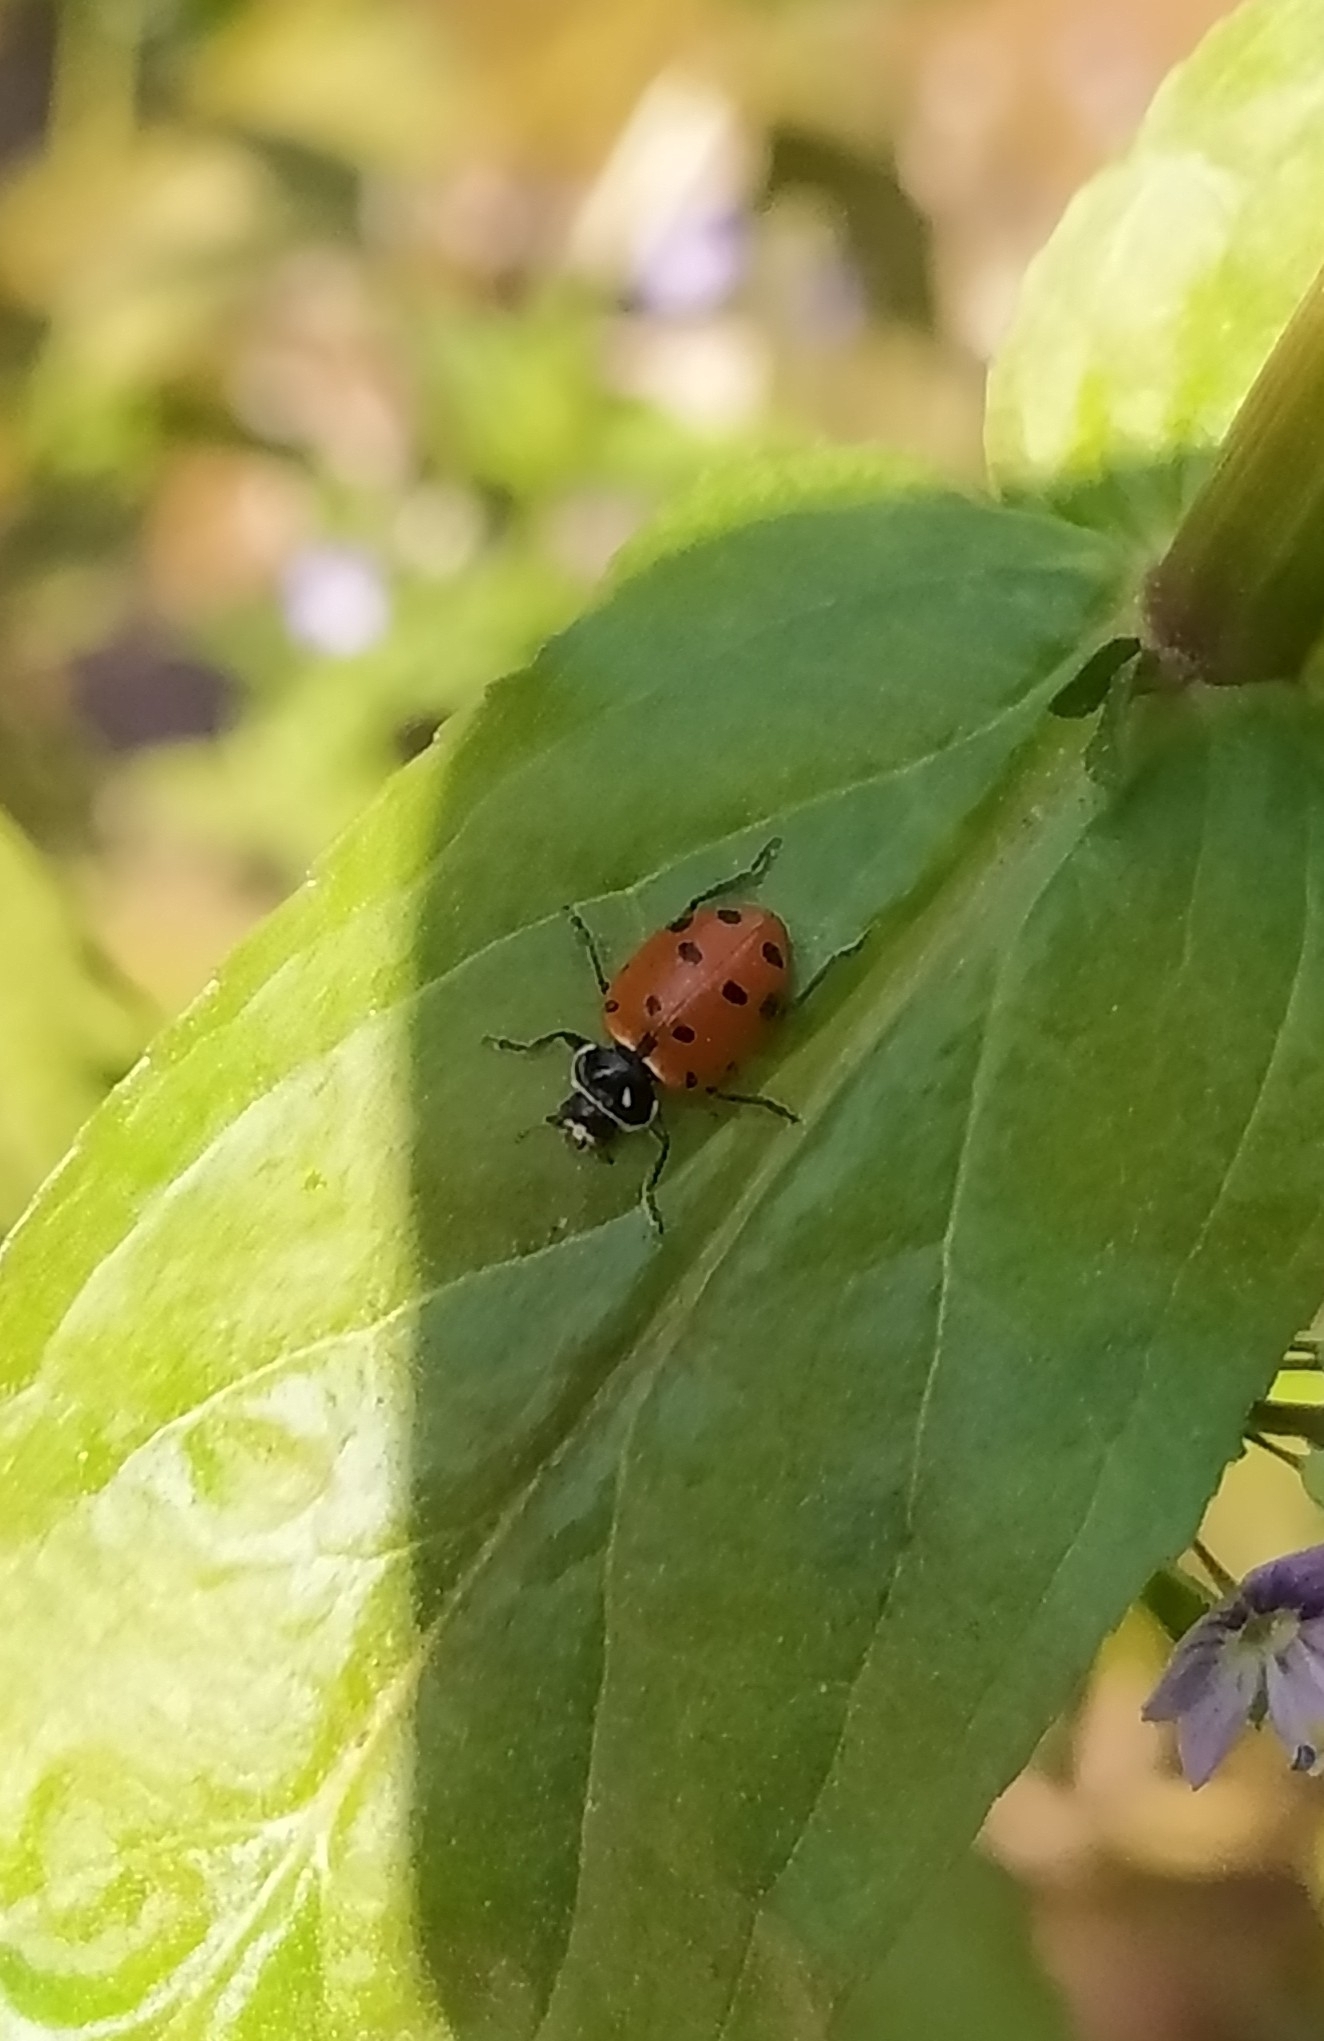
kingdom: Animalia
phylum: Arthropoda
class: Insecta
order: Coleoptera
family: Coccinellidae
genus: Hippodamia
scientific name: Hippodamia convergens
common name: Convergent lady beetle
